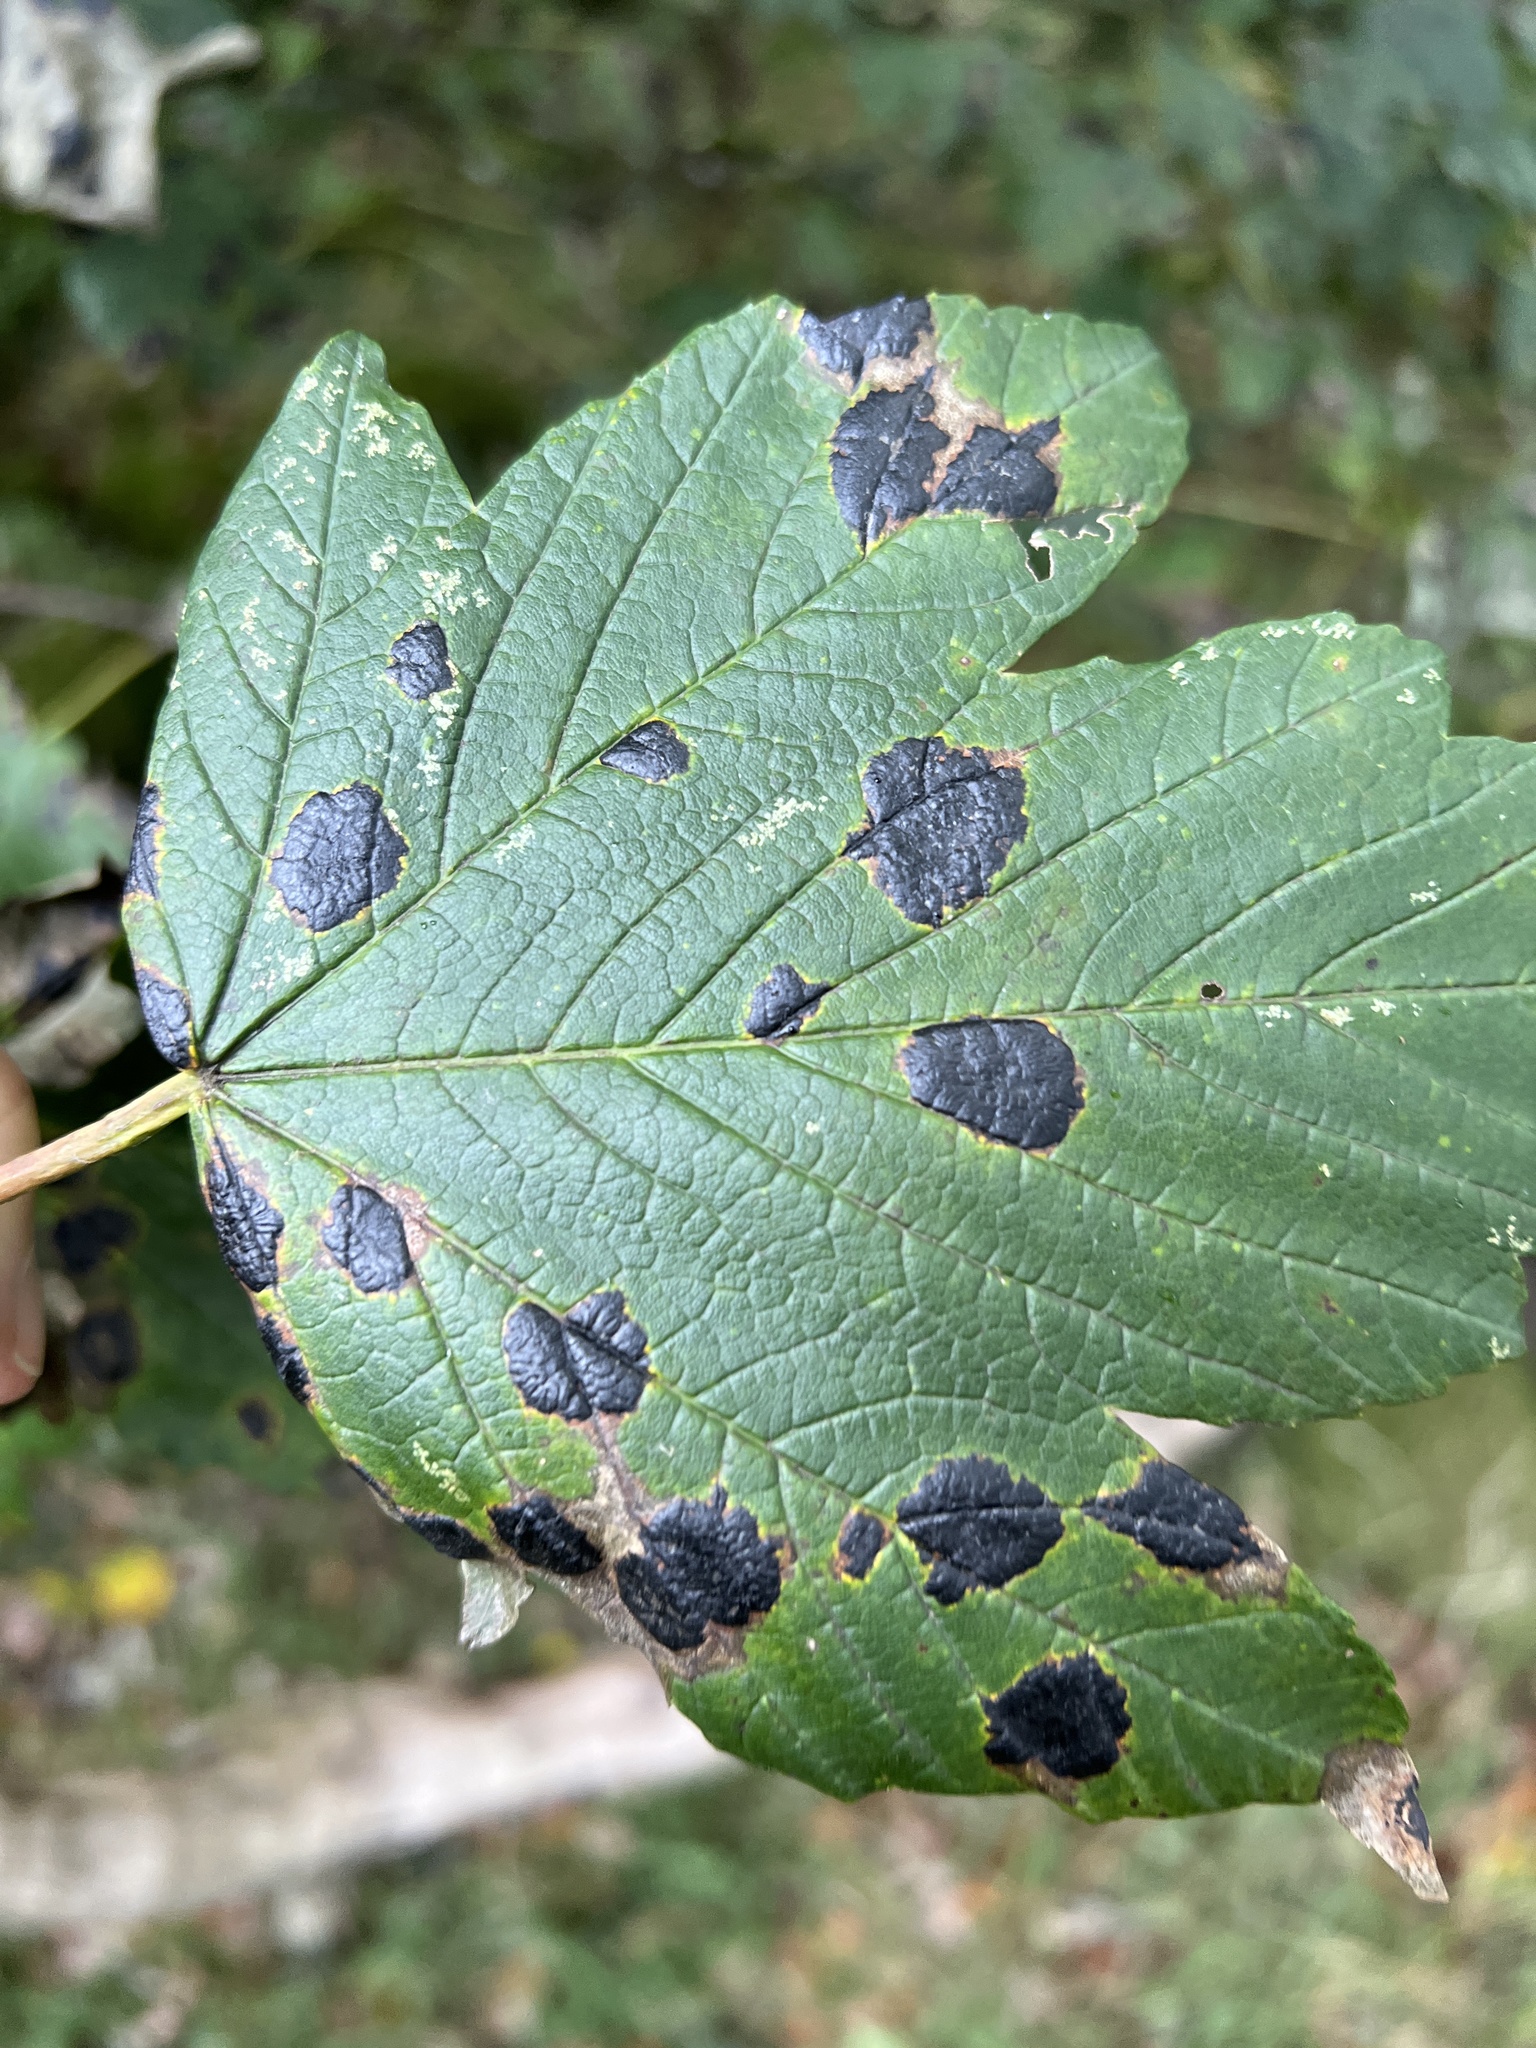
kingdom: Fungi
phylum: Ascomycota
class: Leotiomycetes
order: Rhytismatales
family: Rhytismataceae
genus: Rhytisma
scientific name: Rhytisma acerinum
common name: European tar spot
